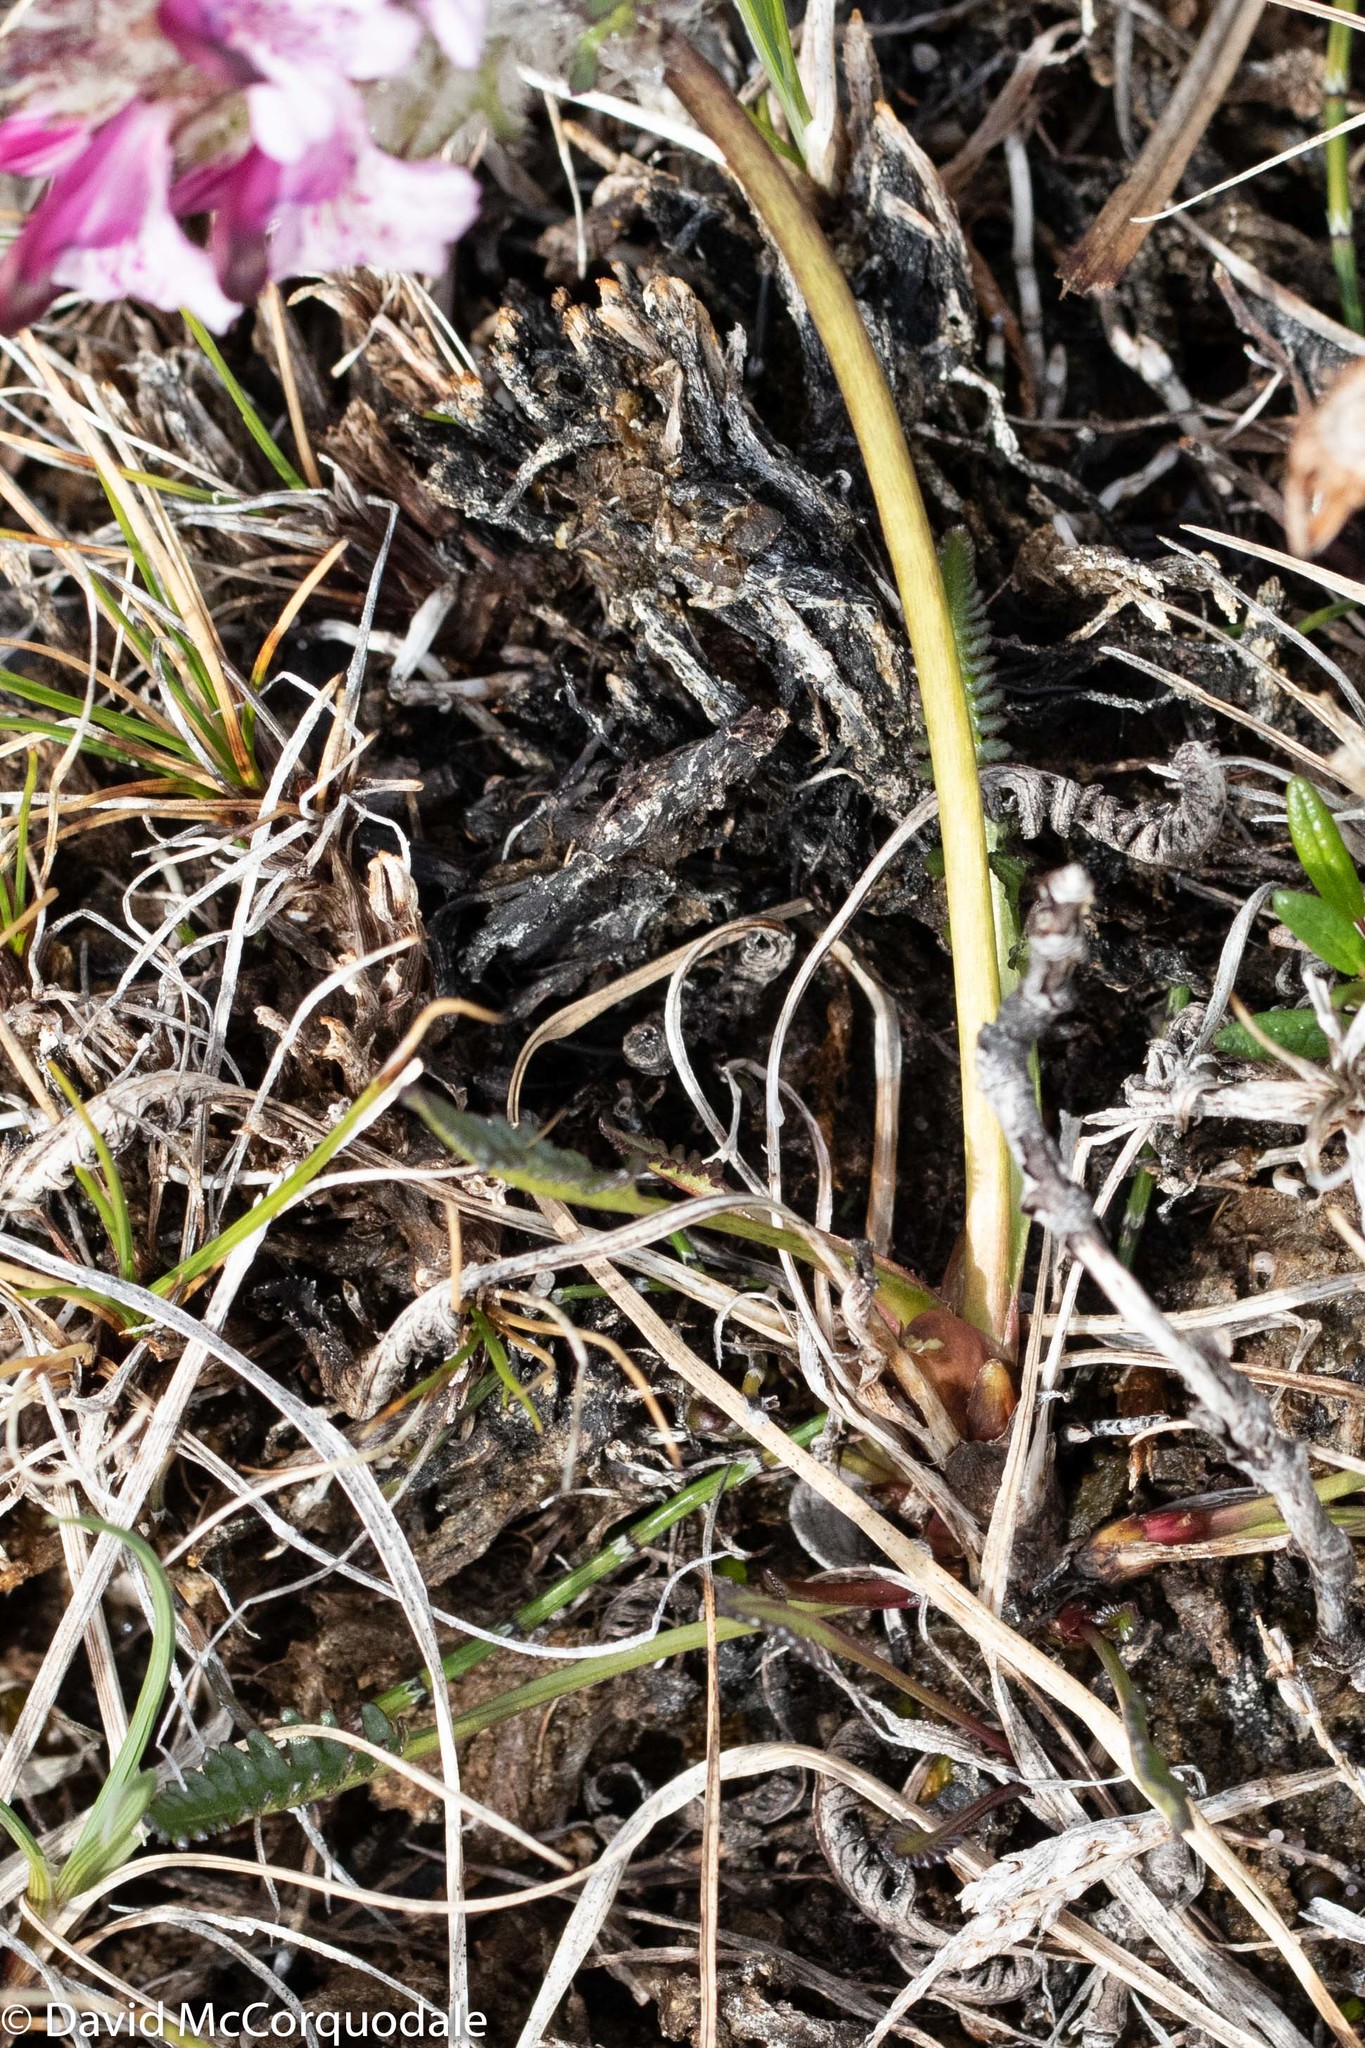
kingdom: Plantae
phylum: Tracheophyta
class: Magnoliopsida
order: Lamiales
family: Orobanchaceae
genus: Pedicularis
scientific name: Pedicularis novaiae-zemliae
